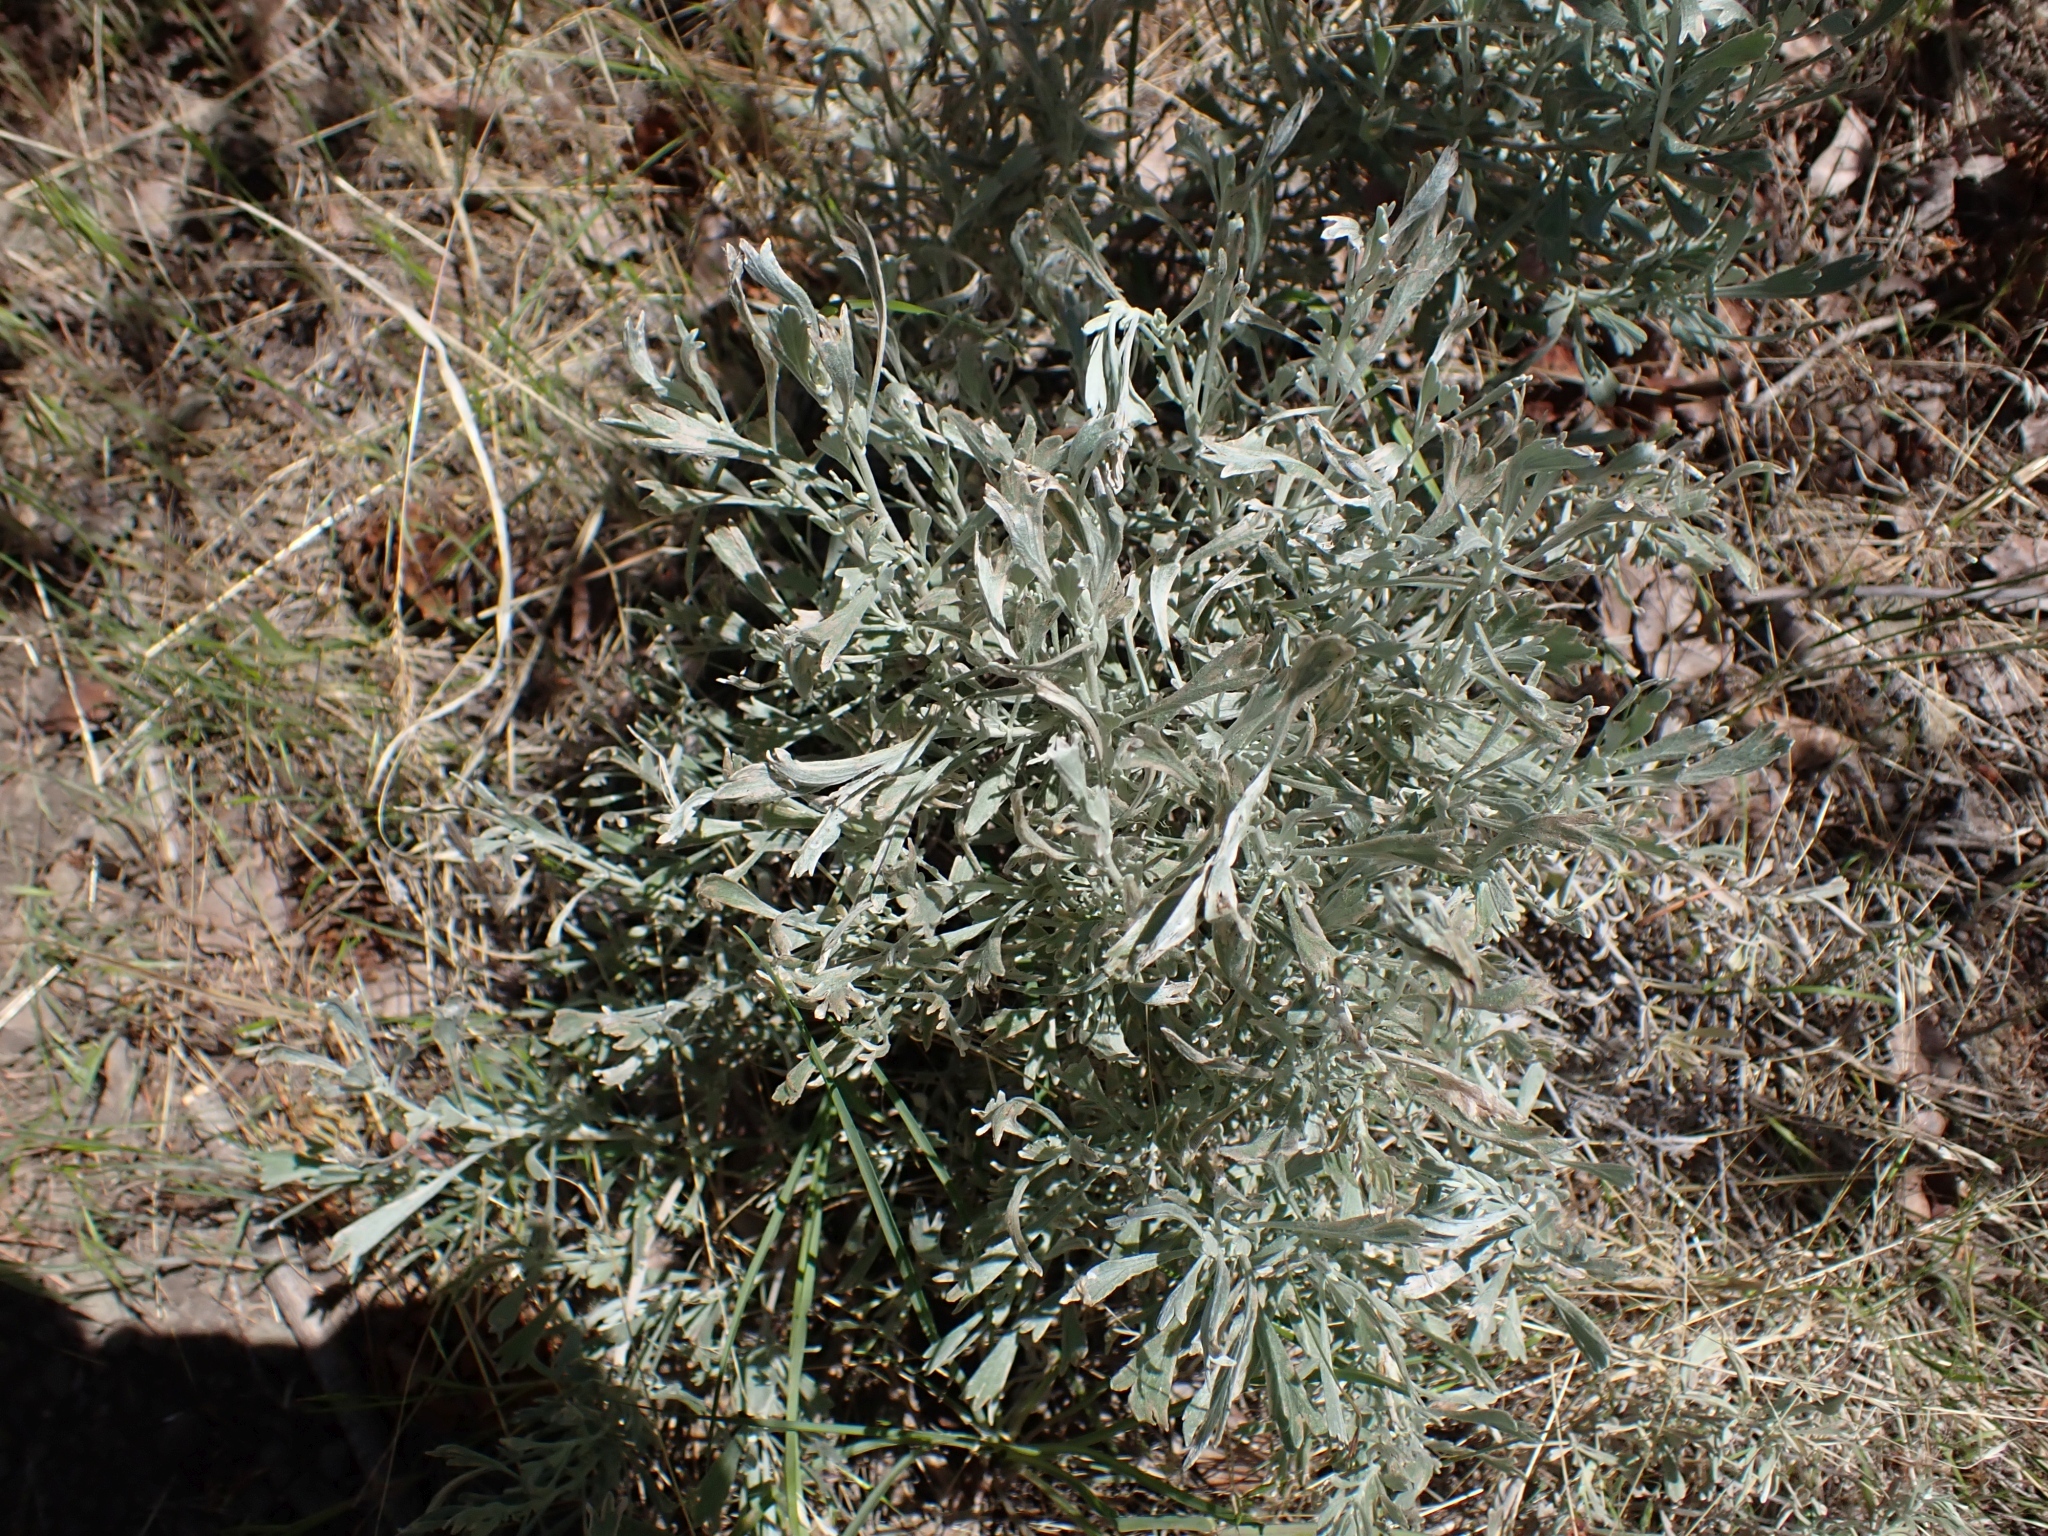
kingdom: Plantae
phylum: Tracheophyta
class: Magnoliopsida
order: Asterales
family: Asteraceae
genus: Artemisia
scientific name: Artemisia tridentata
